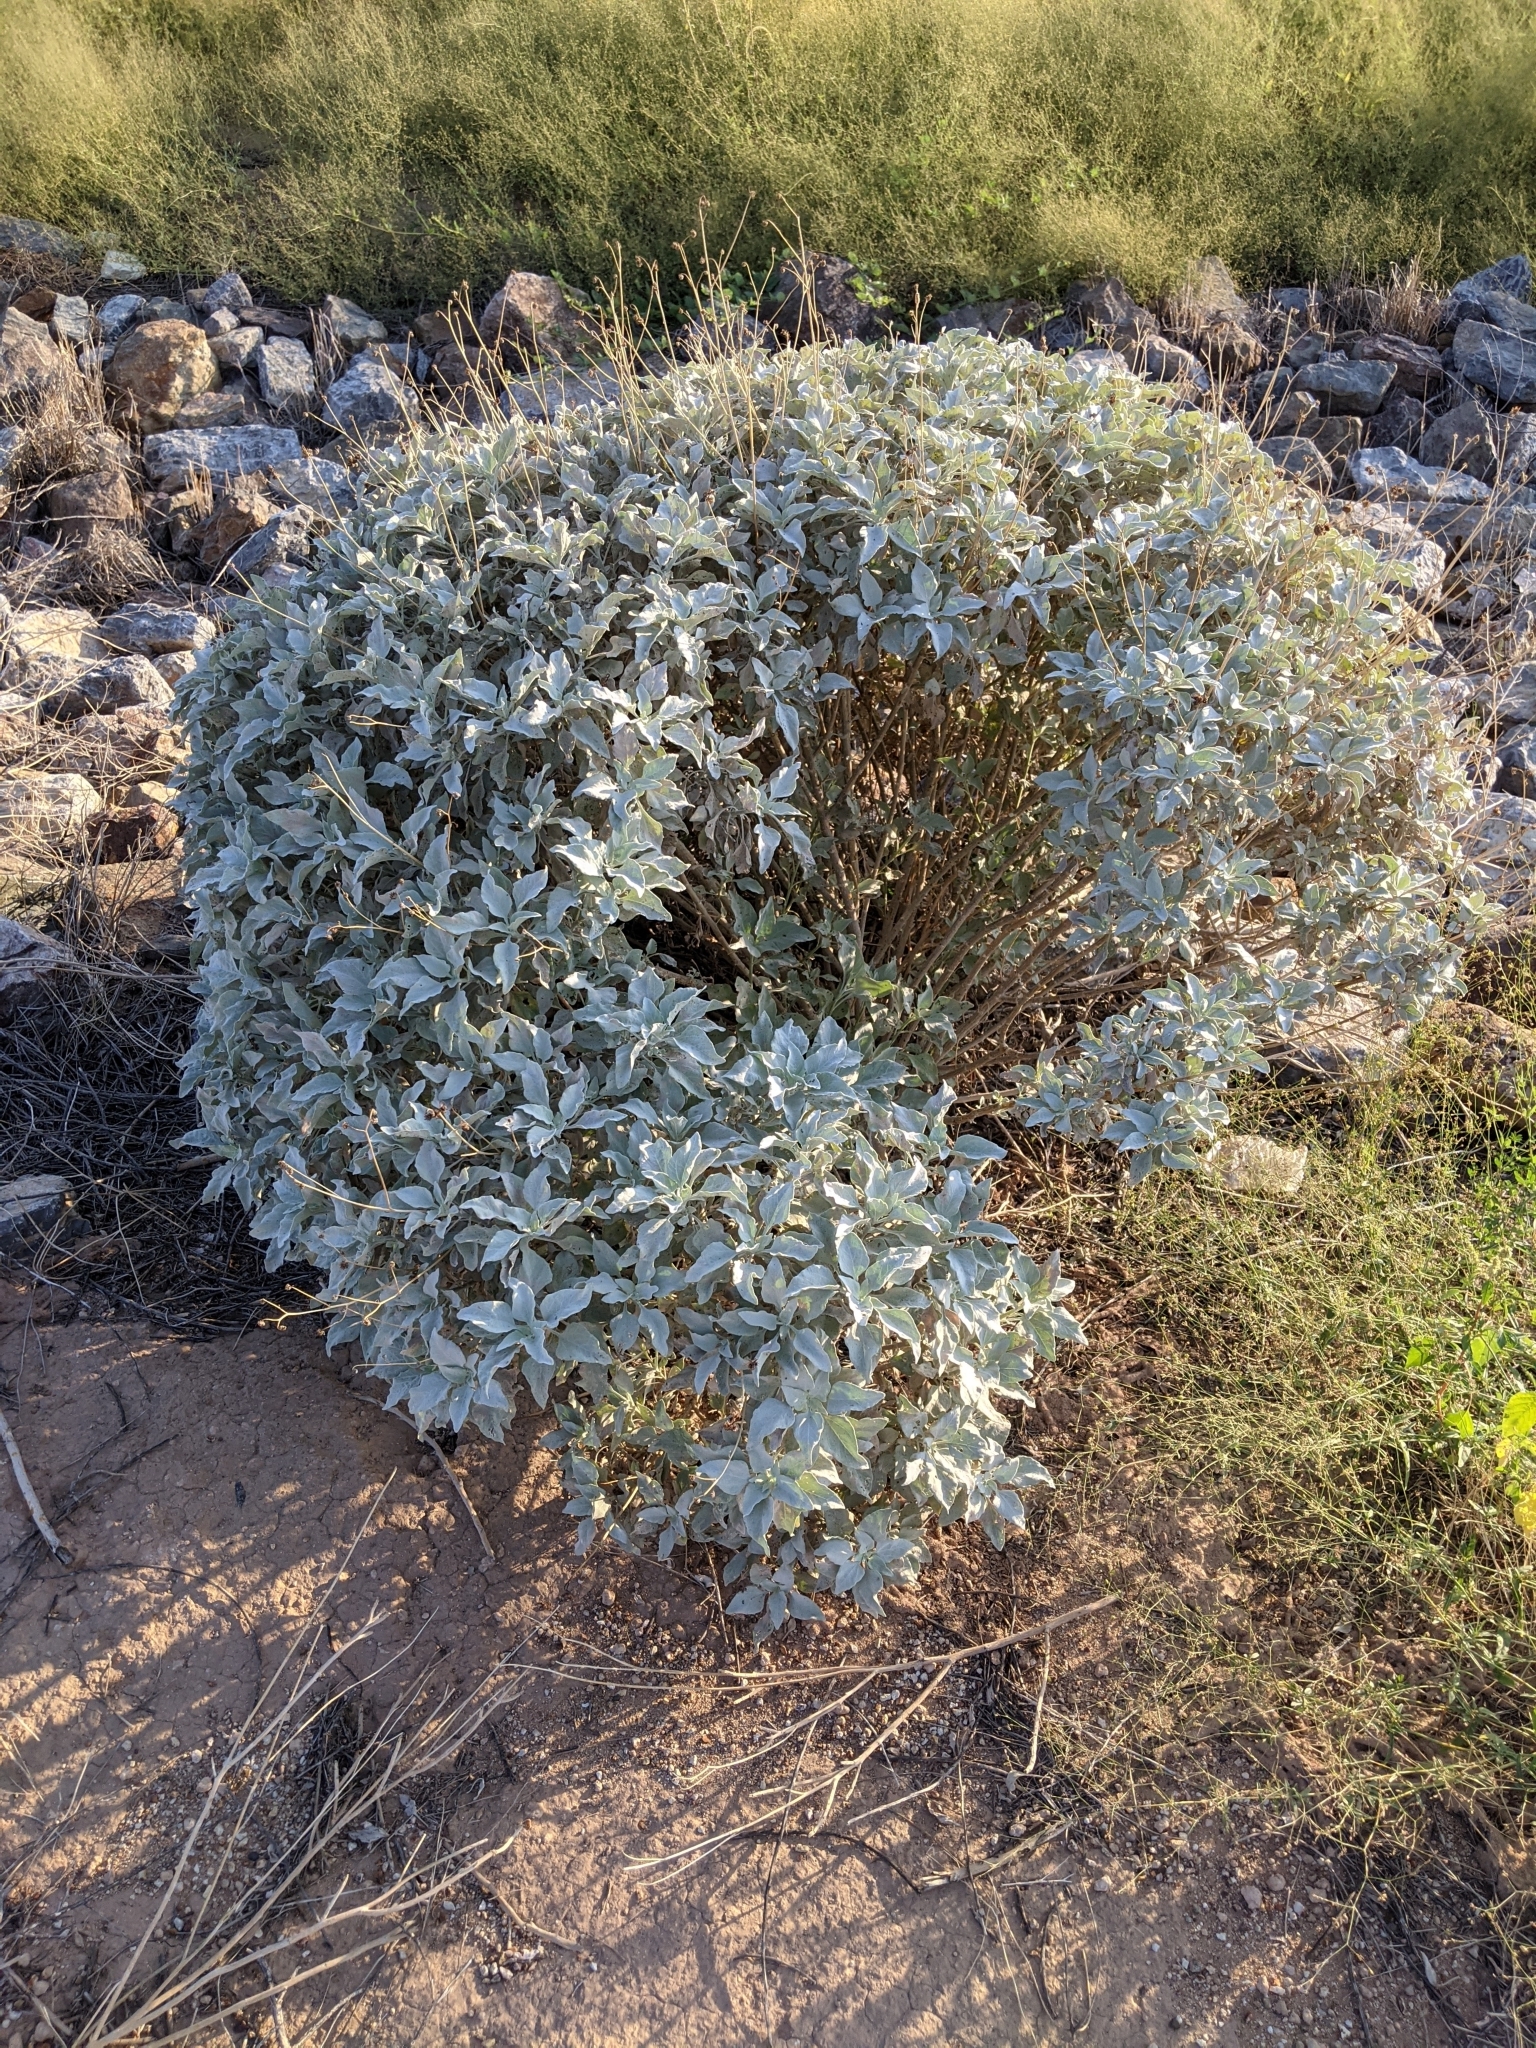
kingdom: Plantae
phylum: Tracheophyta
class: Magnoliopsida
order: Asterales
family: Asteraceae
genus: Encelia
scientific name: Encelia farinosa
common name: Brittlebush
